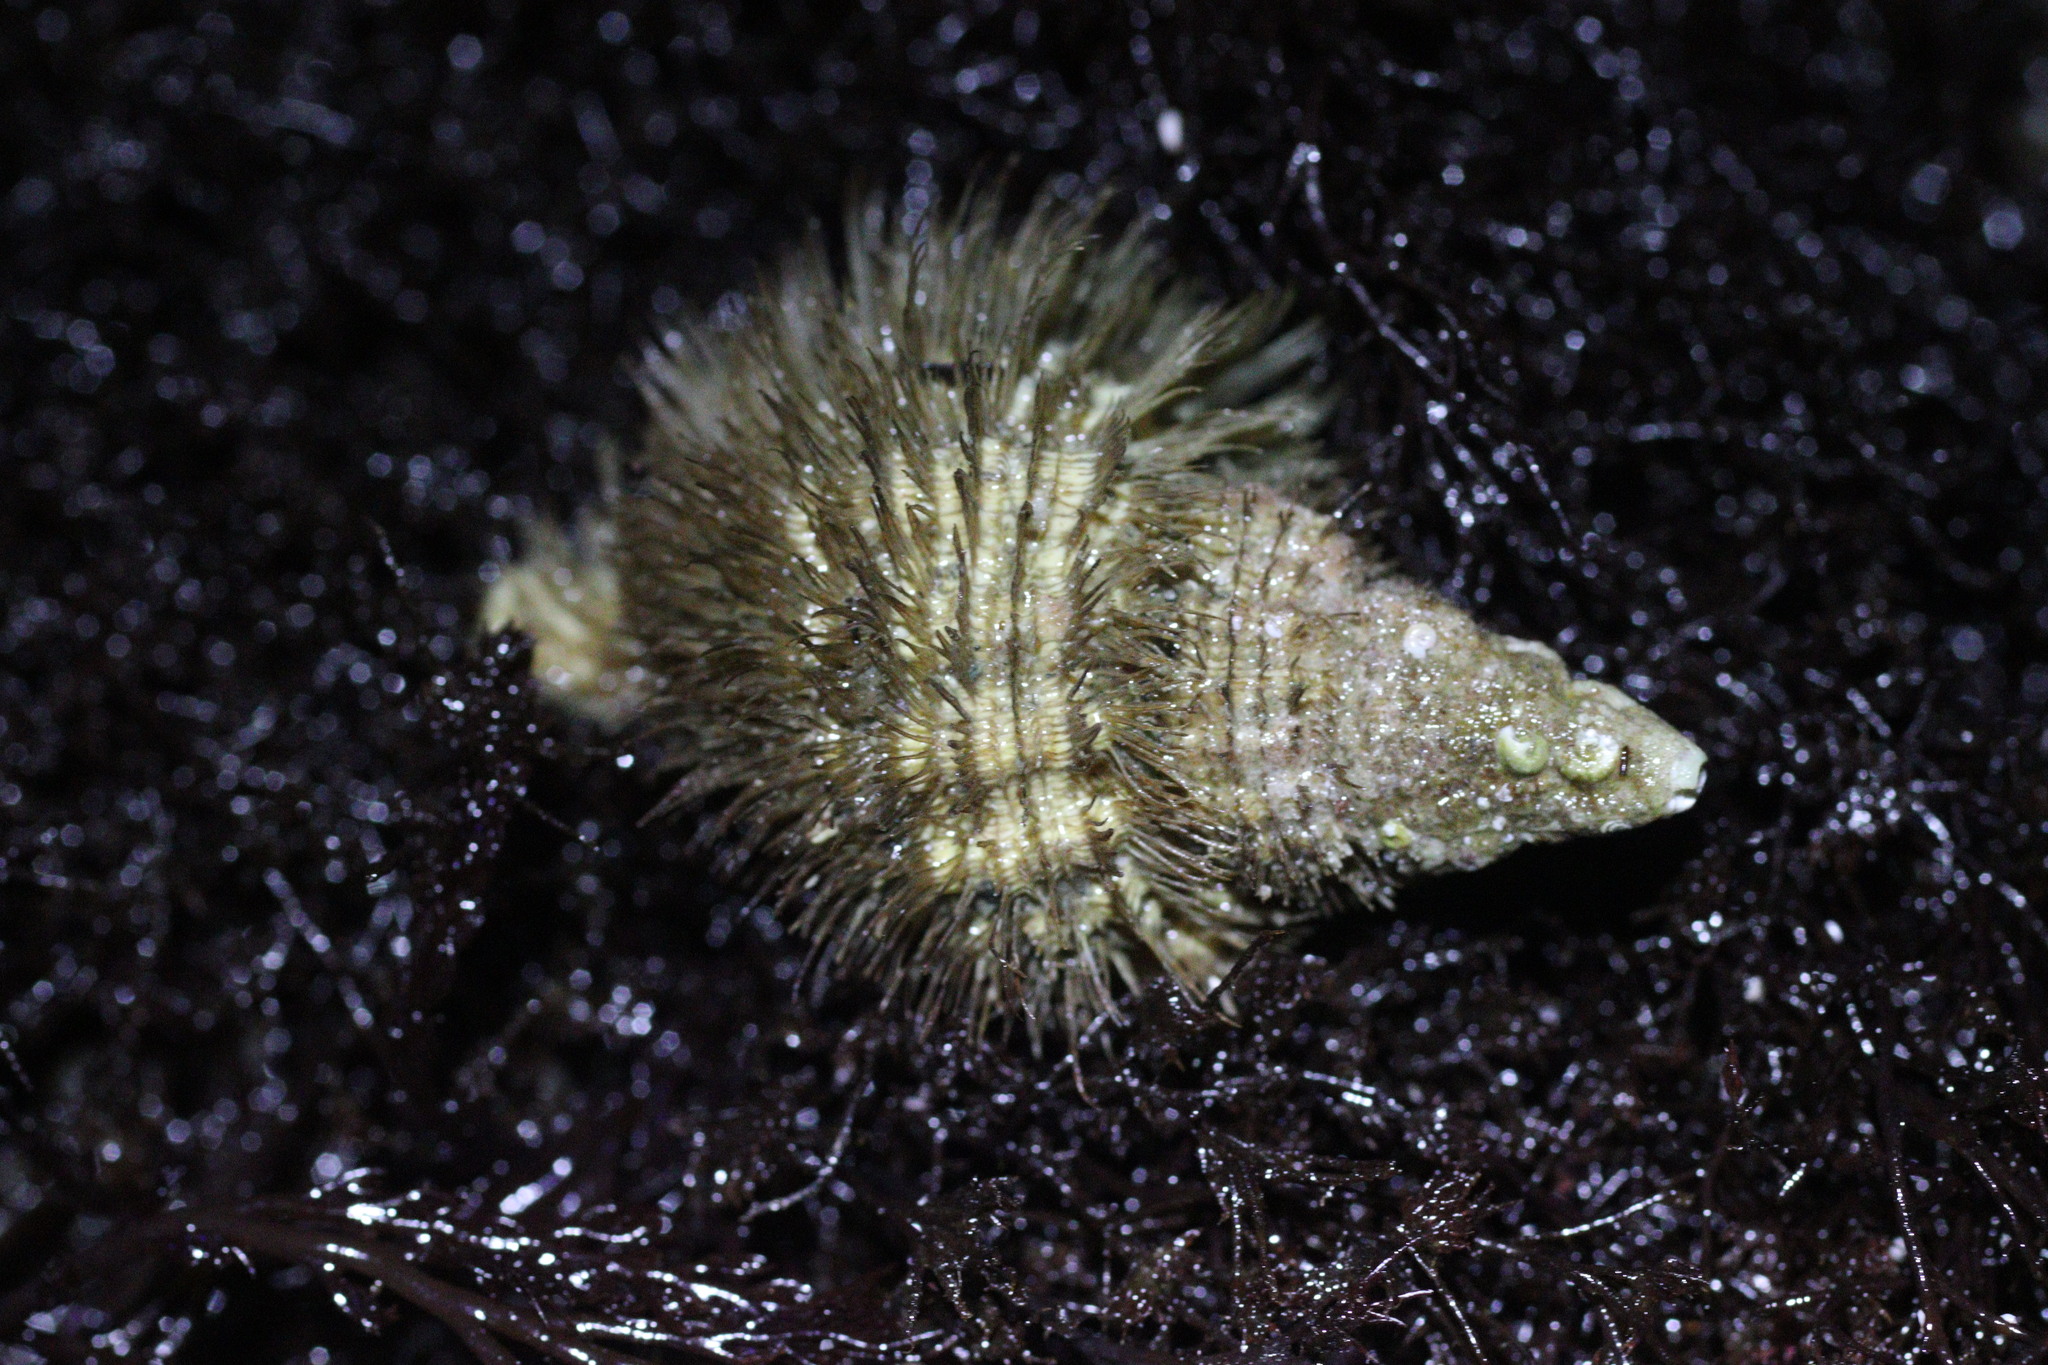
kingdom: Animalia
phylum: Mollusca
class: Gastropoda
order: Littorinimorpha
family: Cymatiidae
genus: Fusitriton
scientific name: Fusitriton oregonensis
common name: Oregon hairy triton
